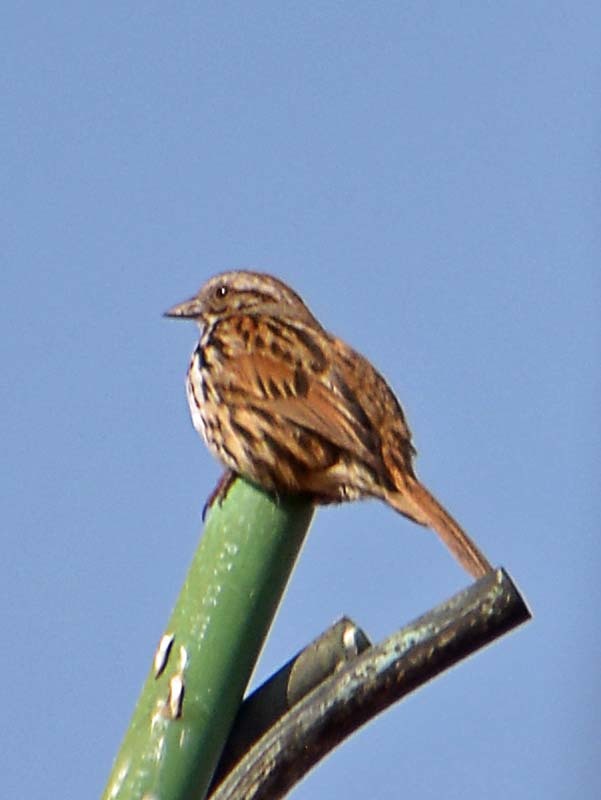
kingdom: Animalia
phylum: Chordata
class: Aves
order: Passeriformes
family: Passerellidae
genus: Melospiza
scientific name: Melospiza melodia
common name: Song sparrow
